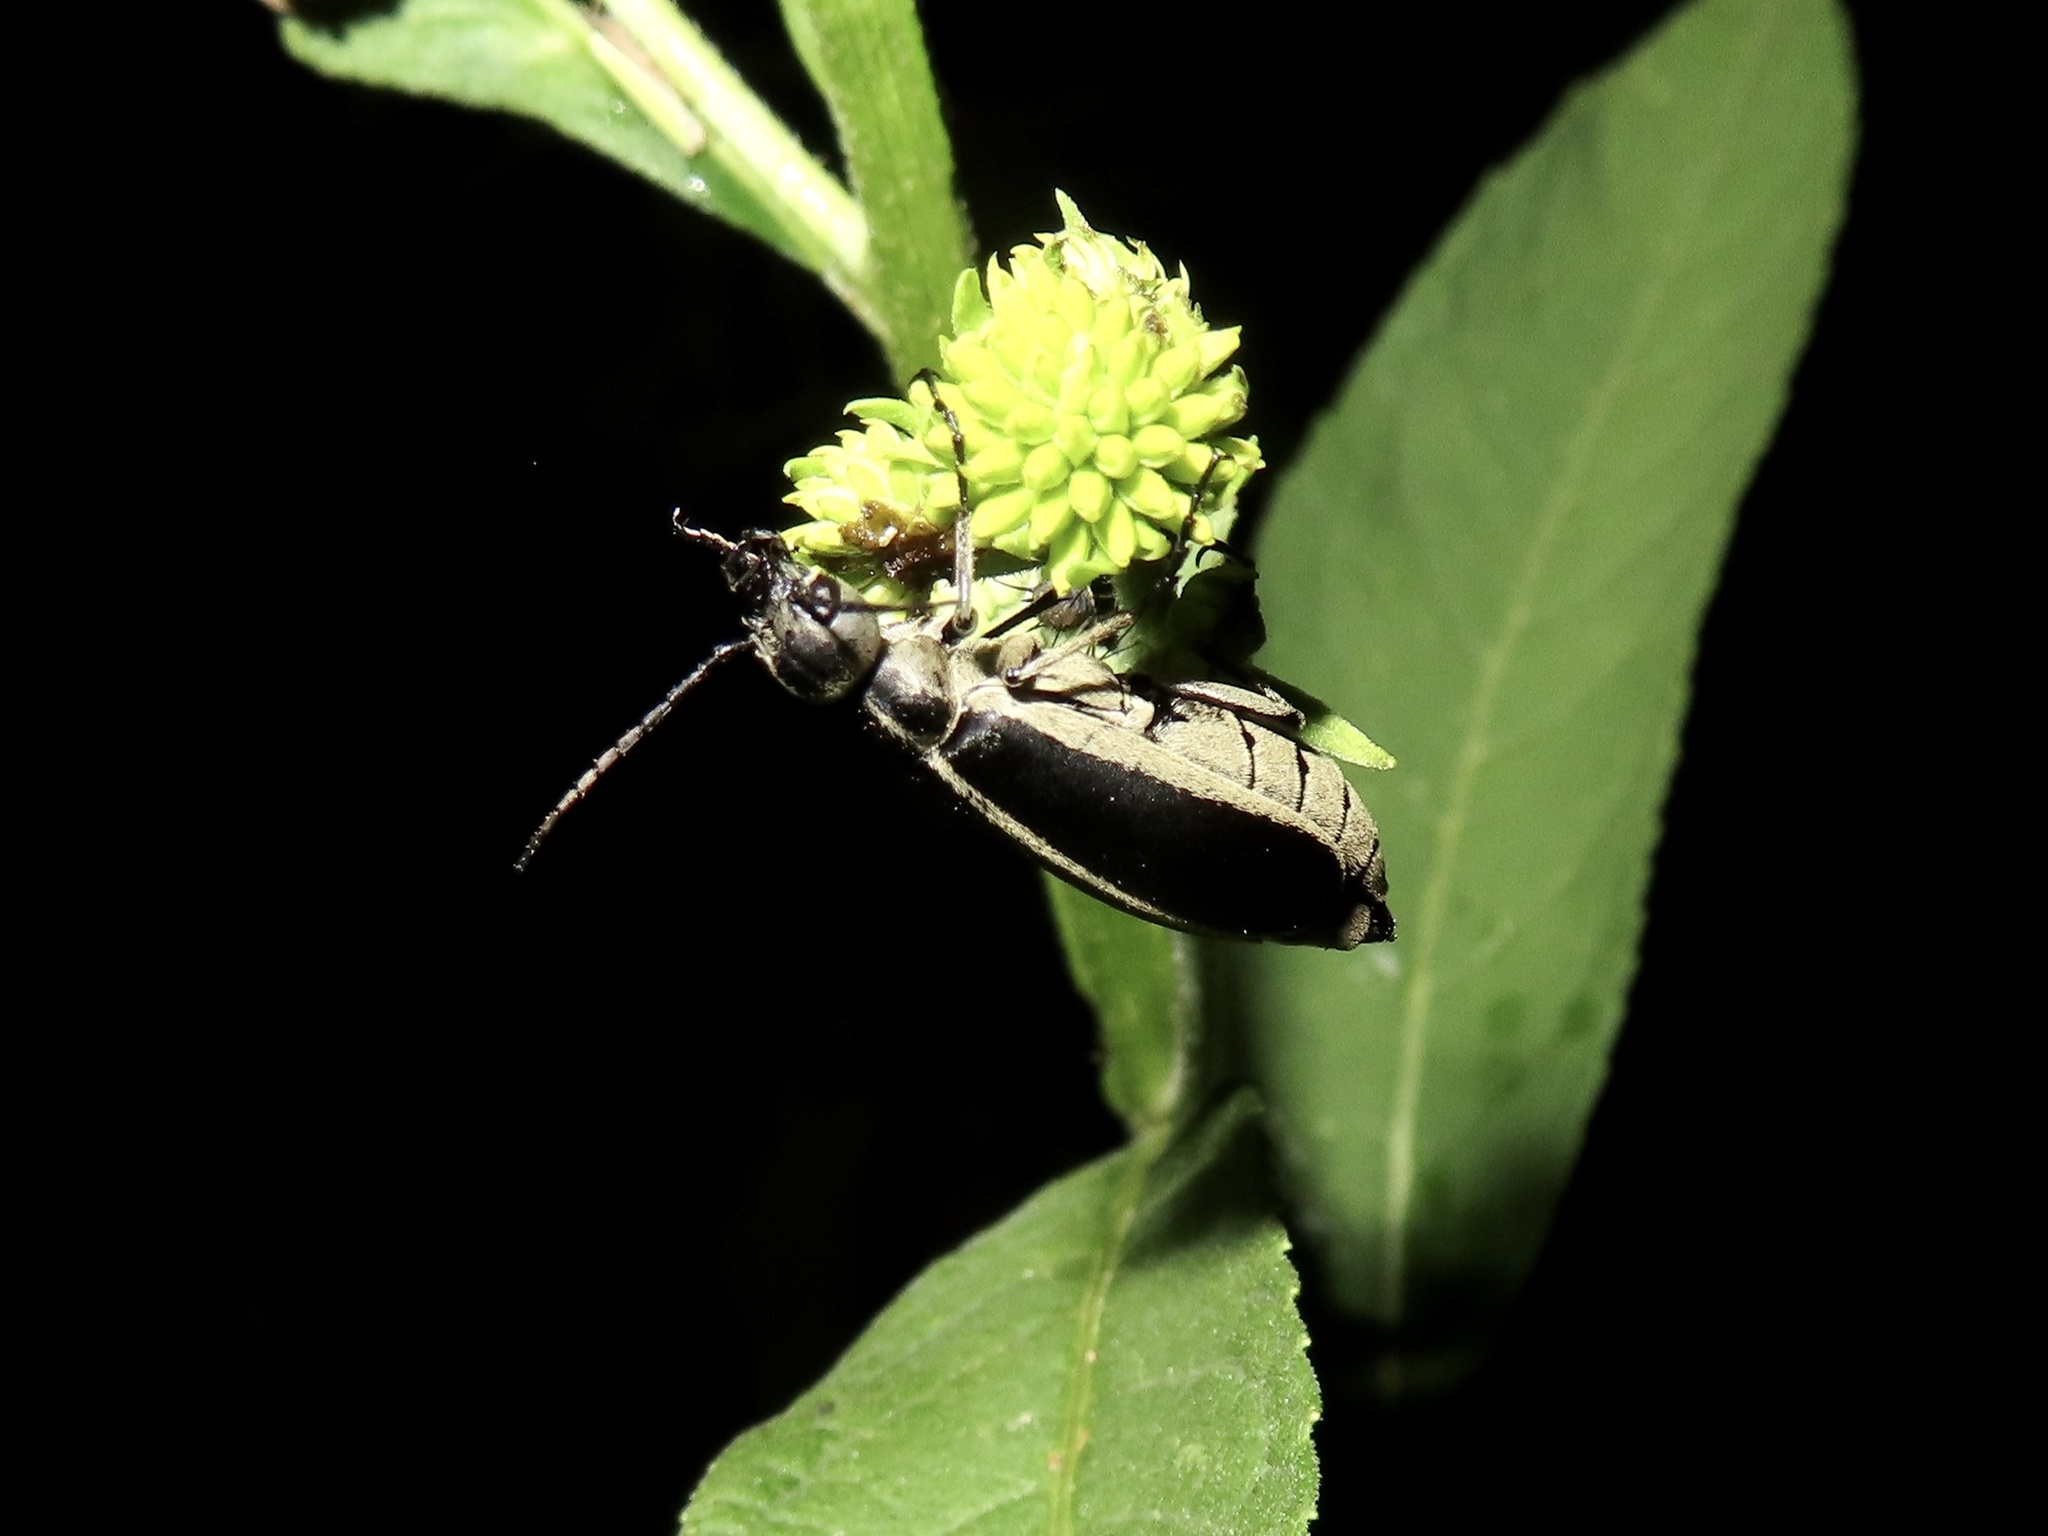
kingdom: Animalia
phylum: Arthropoda
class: Insecta
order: Coleoptera
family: Meloidae
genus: Epicauta
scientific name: Epicauta funebris
